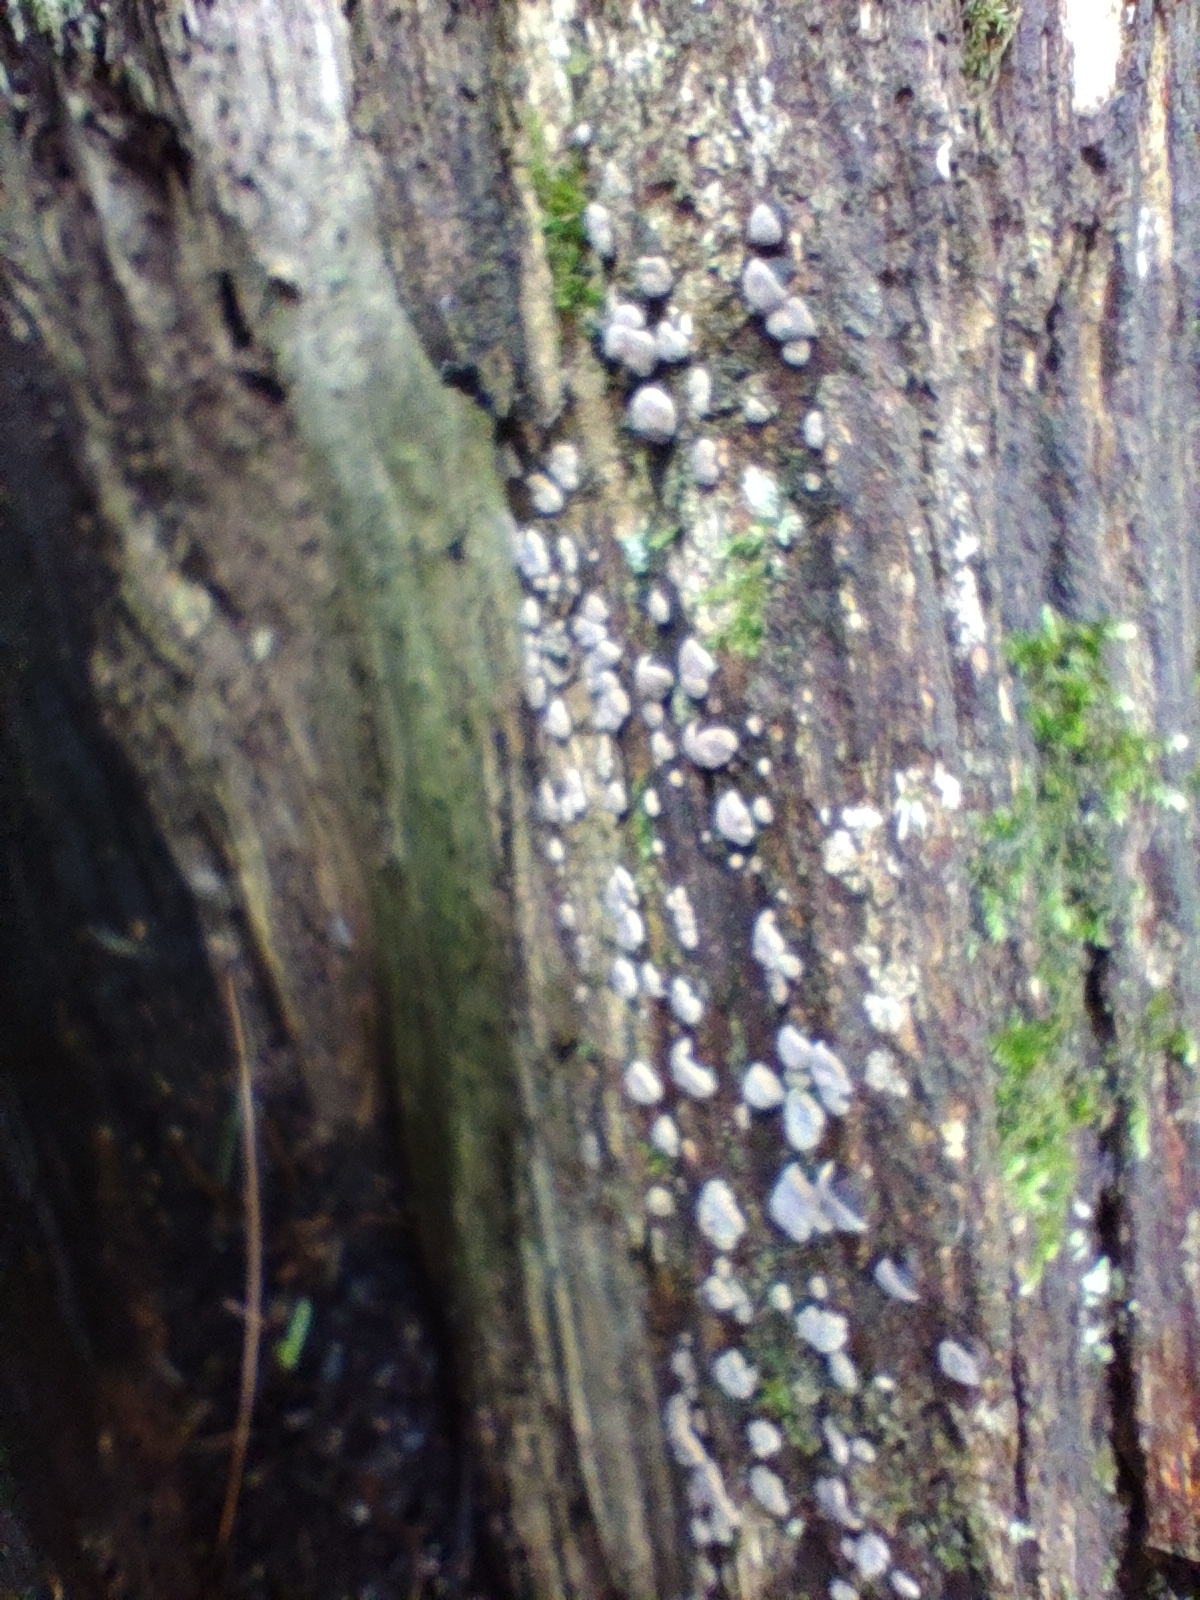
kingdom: Fungi
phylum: Basidiomycota
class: Agaricomycetes
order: Russulales
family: Stereaceae
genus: Xylobolus
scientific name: Xylobolus frustulatus
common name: Ceramic parchment
